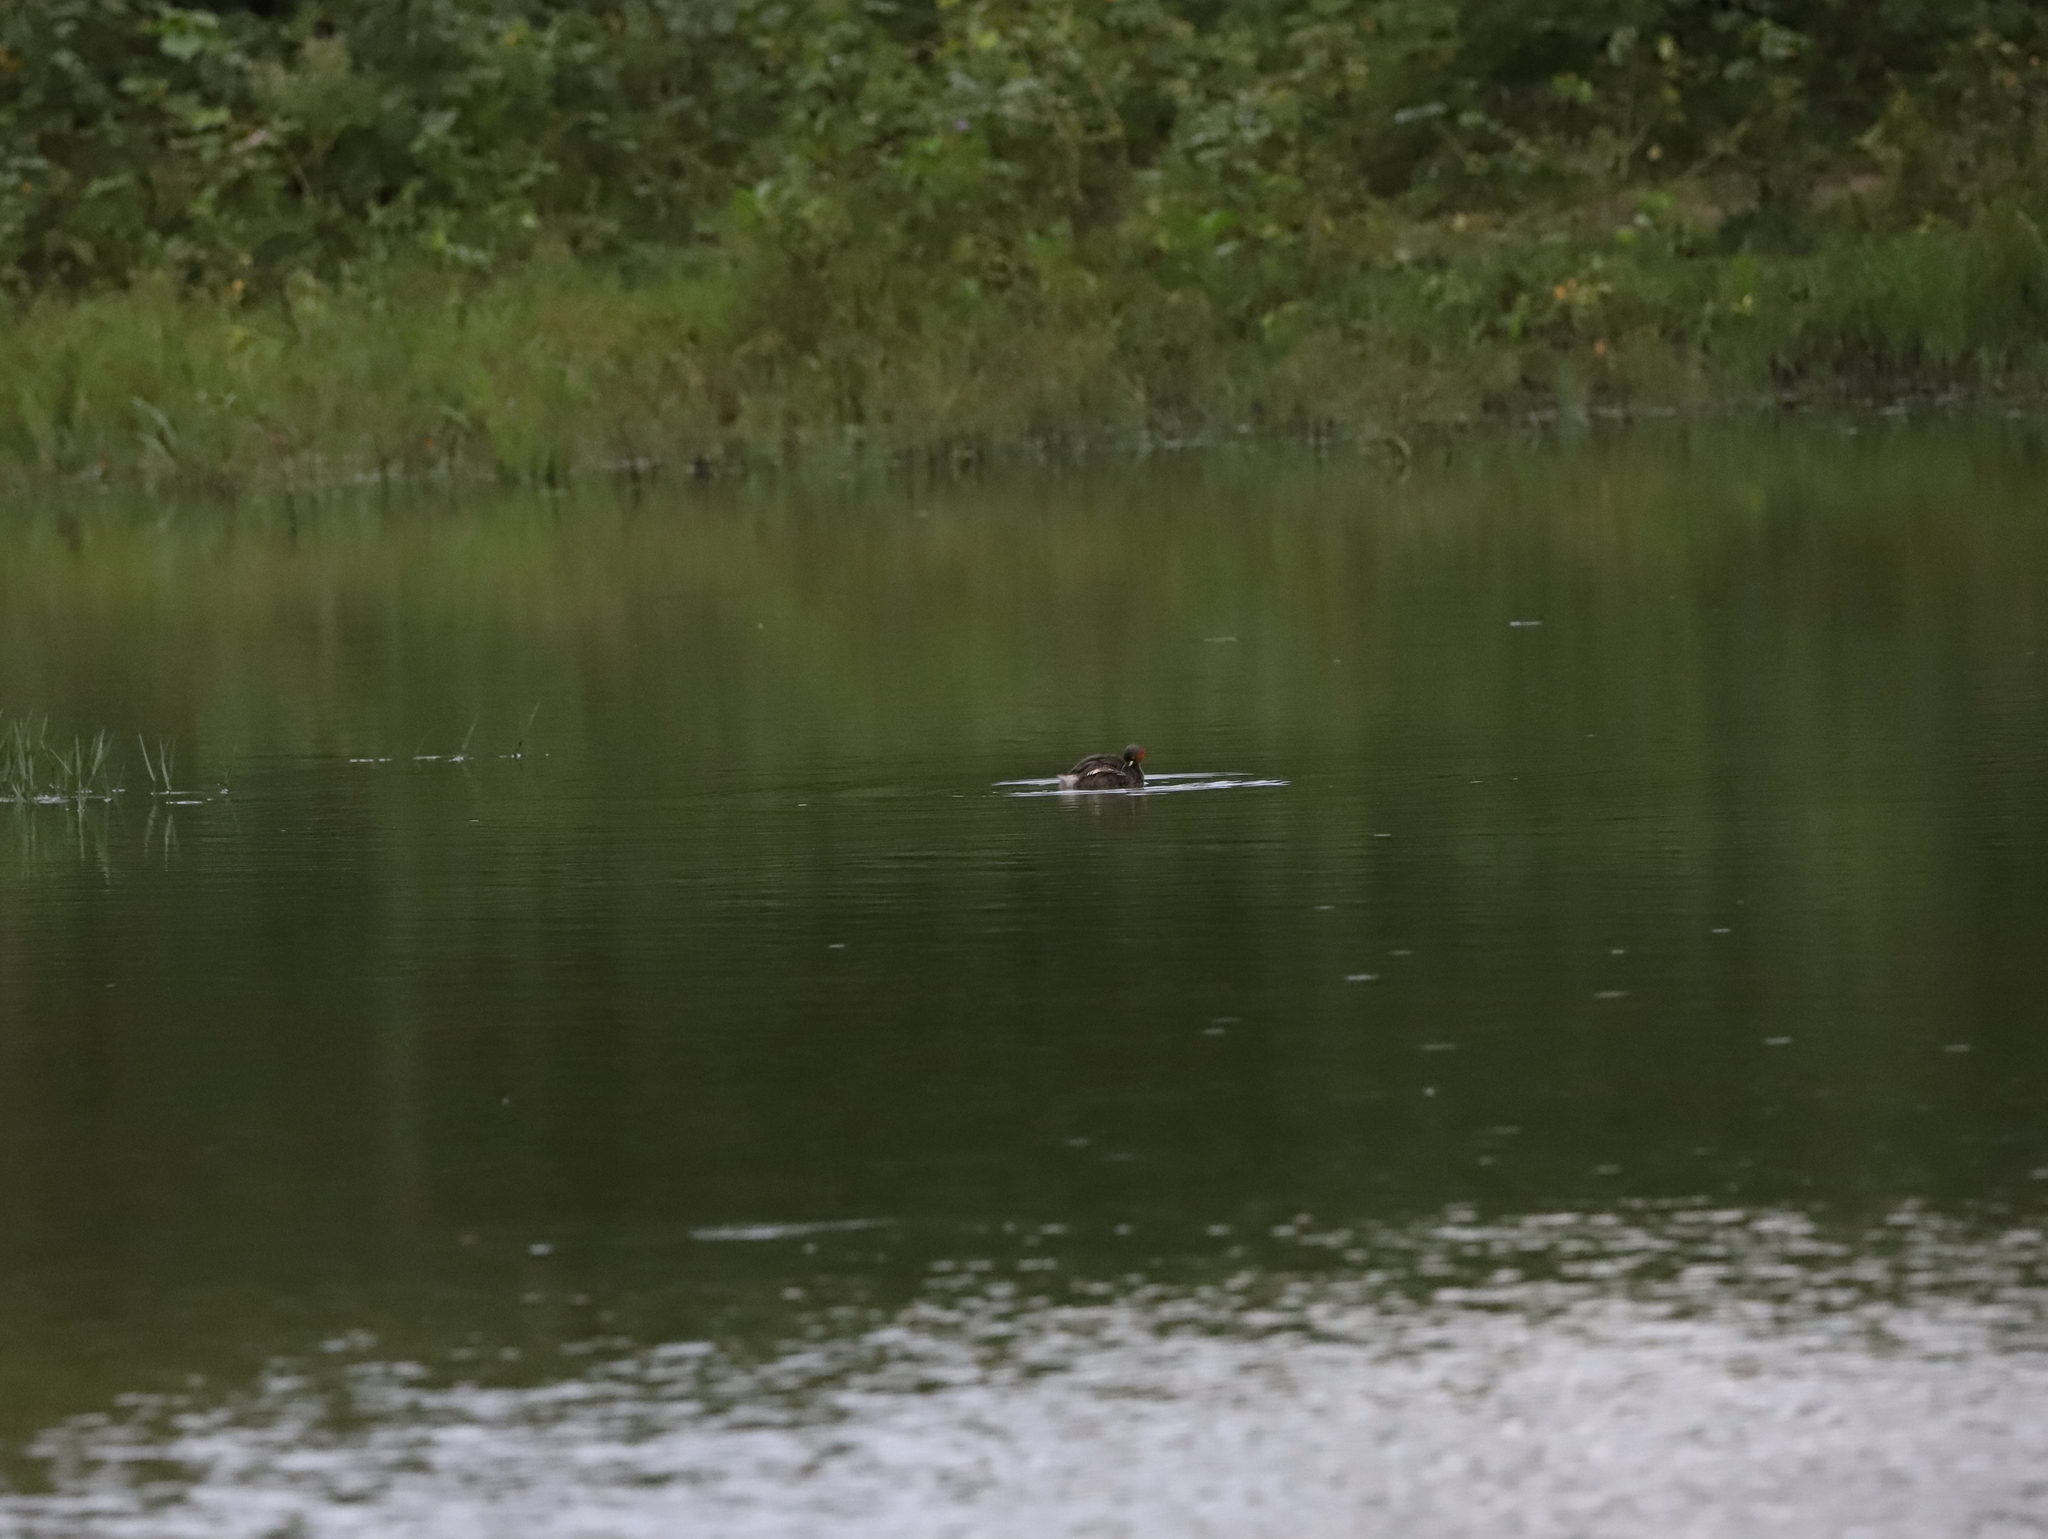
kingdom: Animalia
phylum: Chordata
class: Aves
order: Podicipediformes
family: Podicipedidae
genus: Tachybaptus
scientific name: Tachybaptus ruficollis
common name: Little grebe
